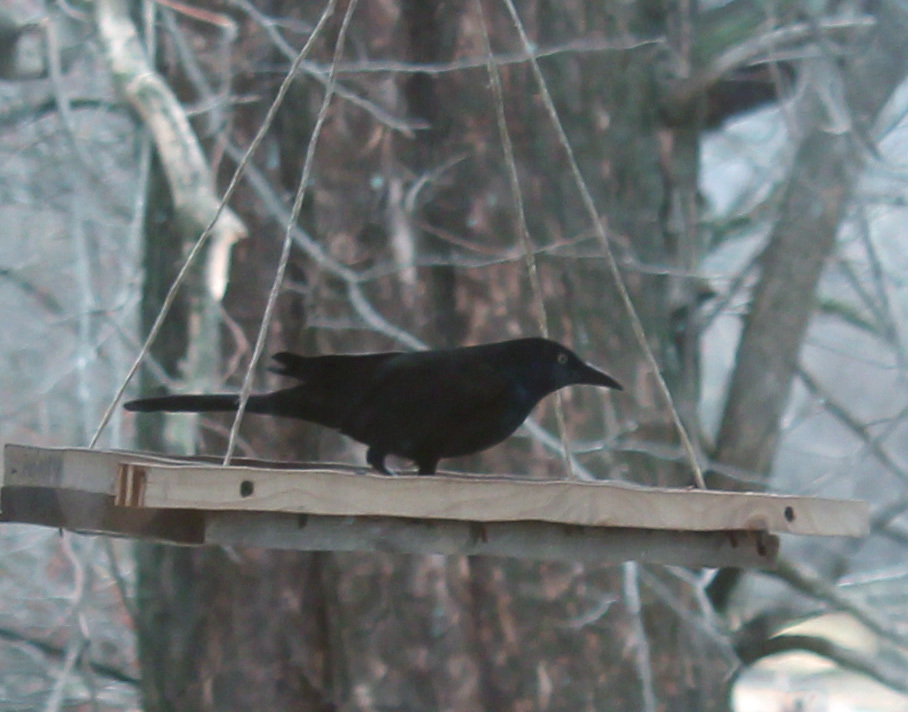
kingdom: Animalia
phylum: Chordata
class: Aves
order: Passeriformes
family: Icteridae
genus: Quiscalus
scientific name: Quiscalus quiscula
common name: Common grackle
